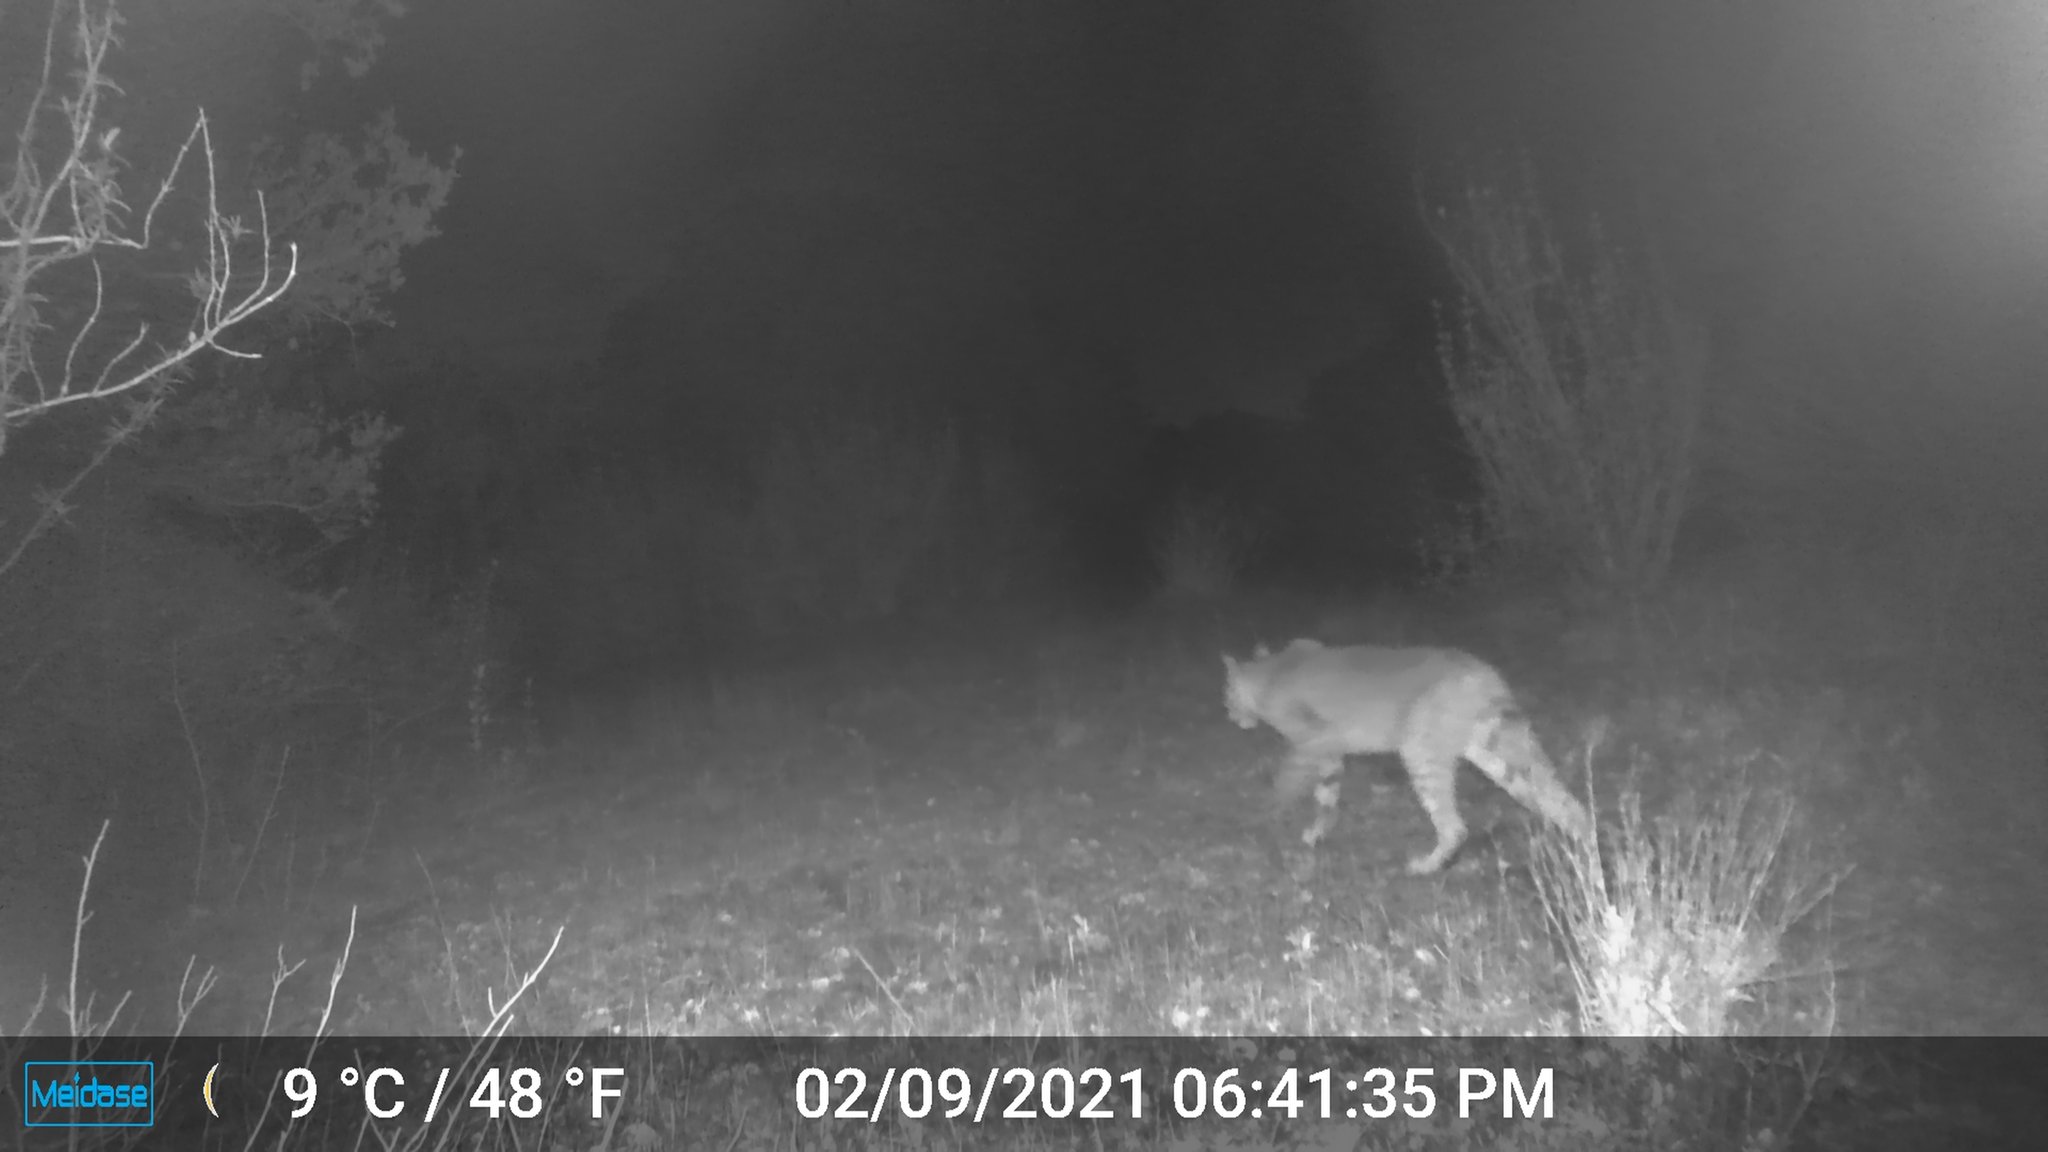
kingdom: Animalia
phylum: Chordata
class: Mammalia
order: Carnivora
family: Felidae
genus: Lynx
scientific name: Lynx rufus
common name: Bobcat
